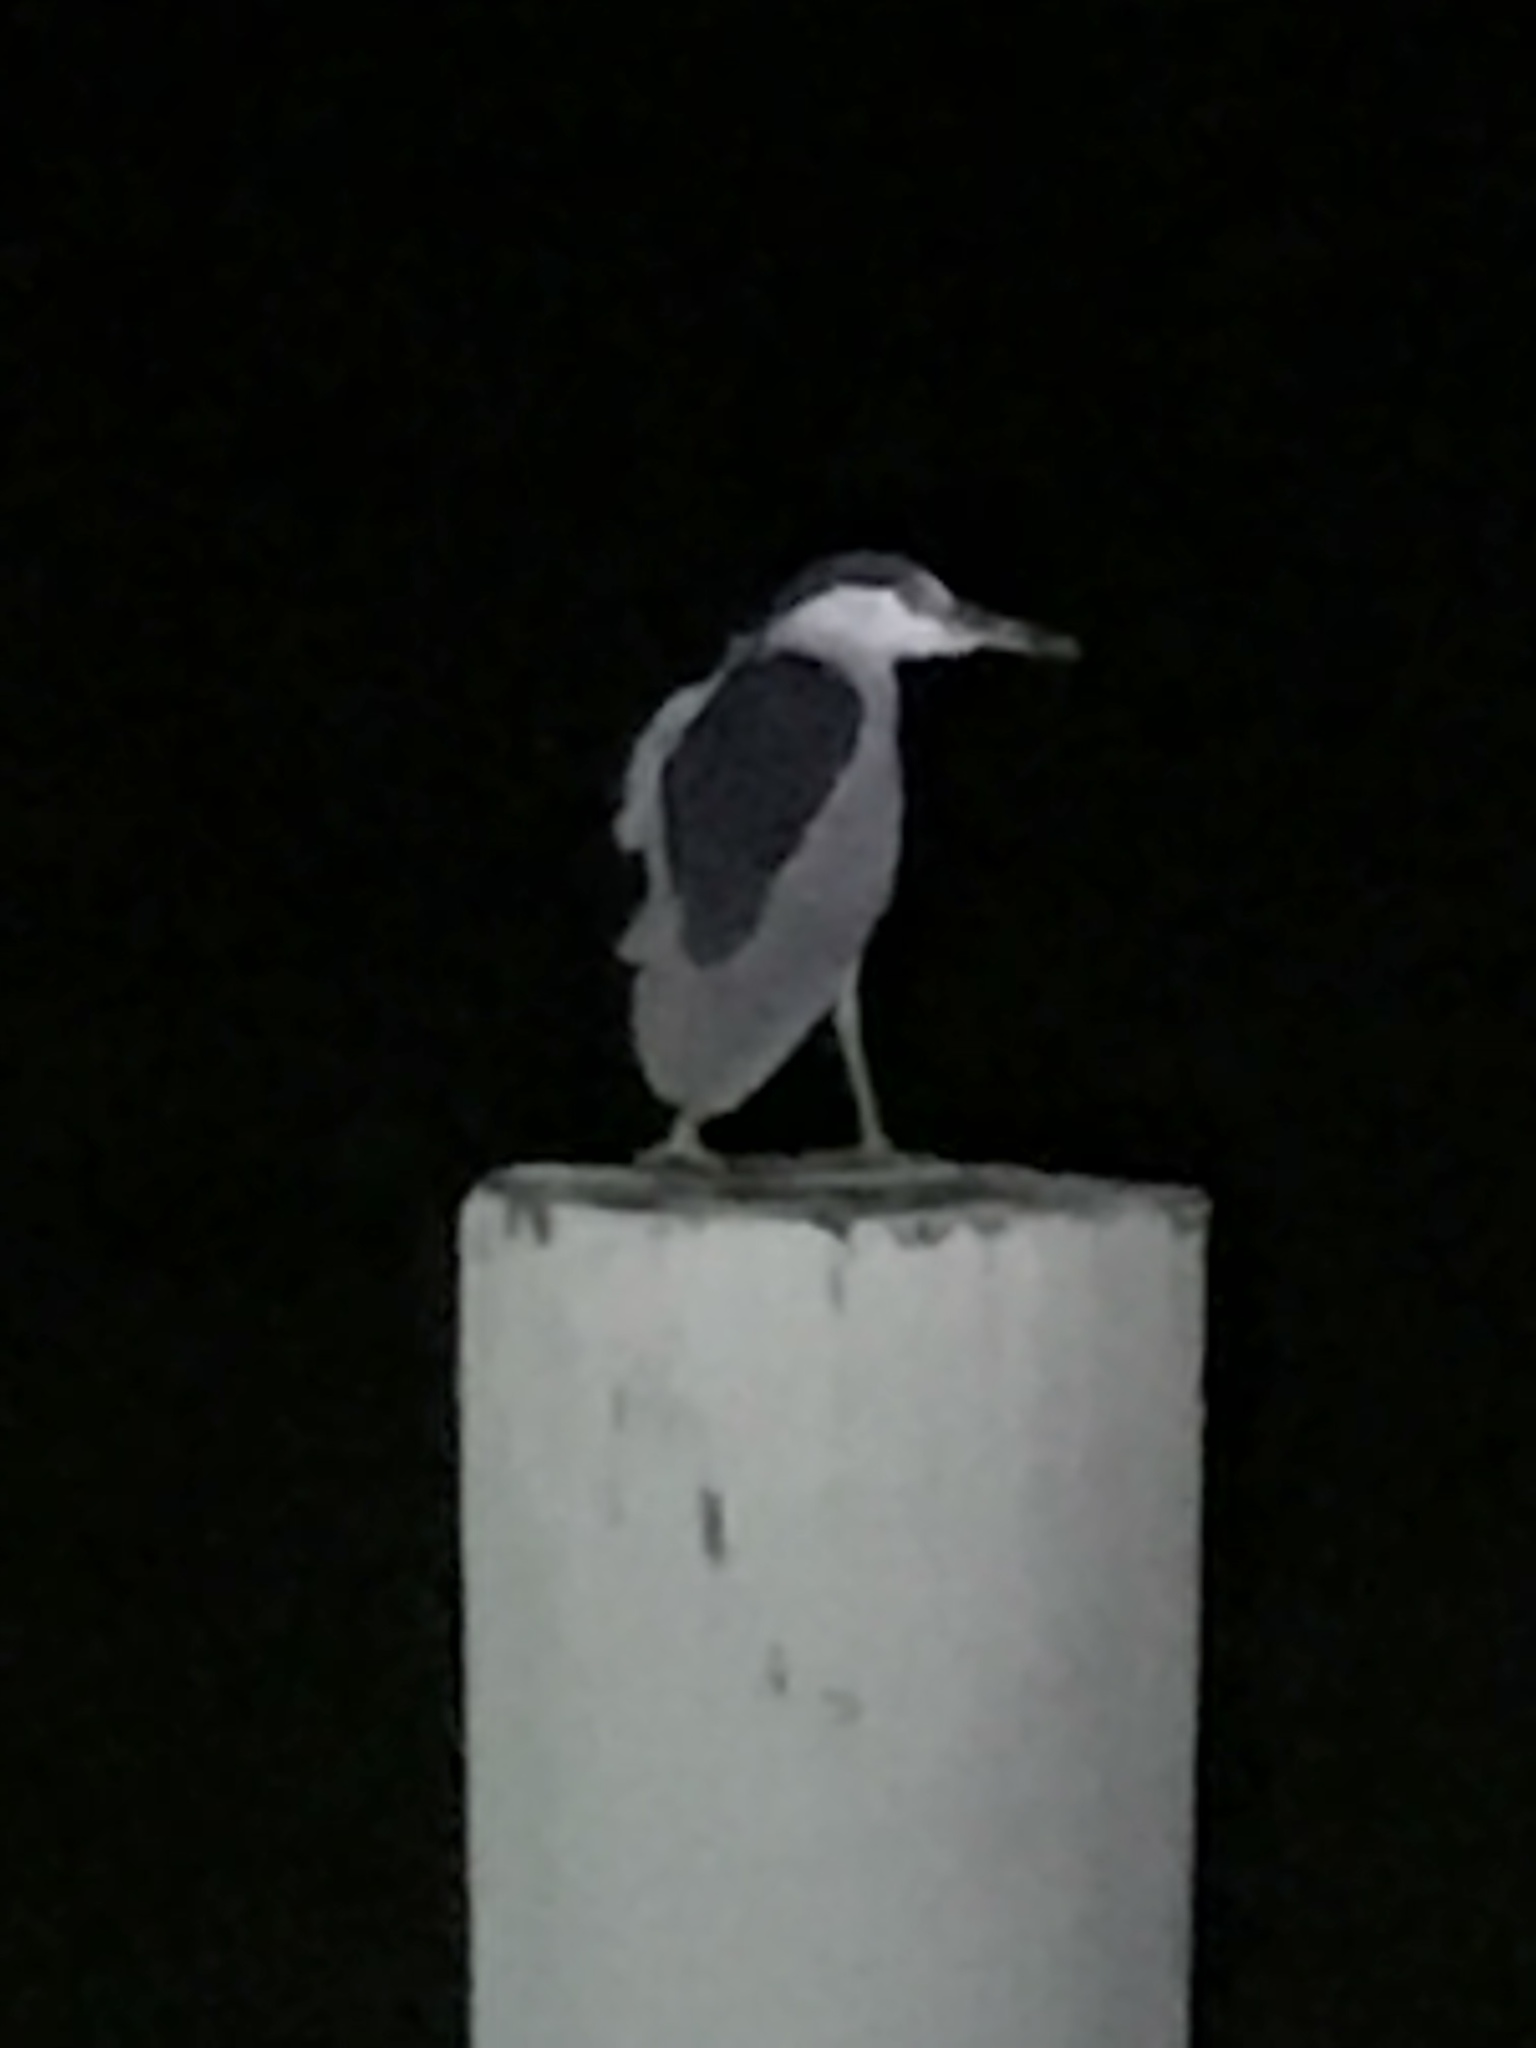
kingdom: Animalia
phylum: Chordata
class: Aves
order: Pelecaniformes
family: Ardeidae
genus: Nycticorax
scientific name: Nycticorax nycticorax
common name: Black-crowned night heron
